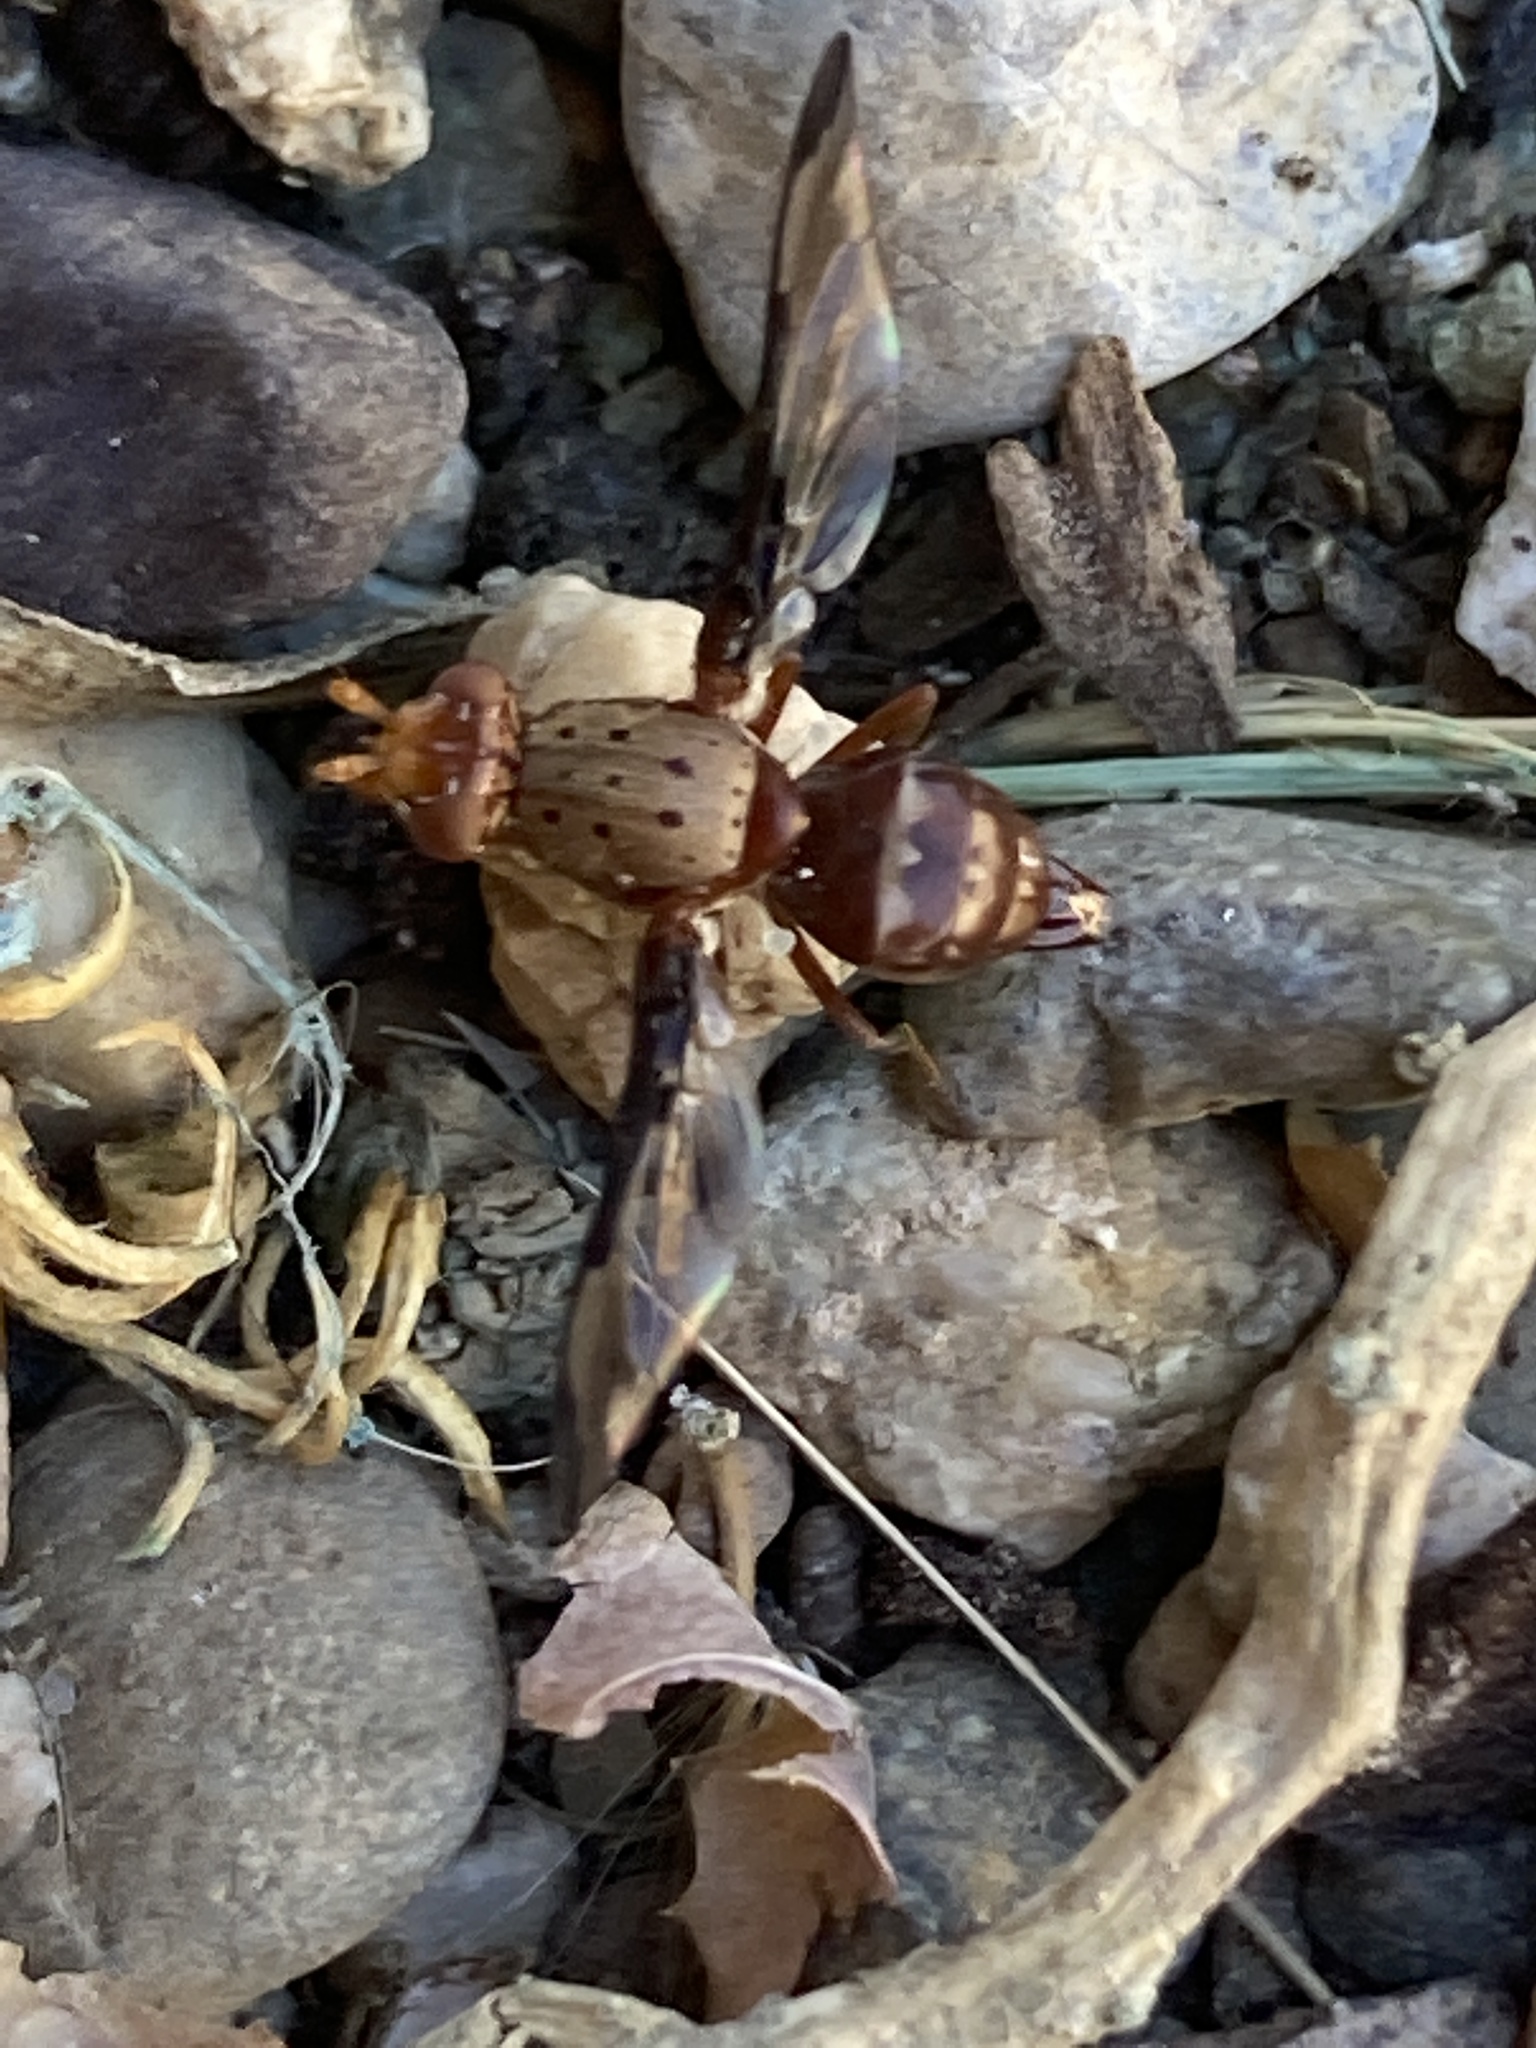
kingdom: Animalia
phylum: Arthropoda
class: Insecta
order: Diptera
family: Ulidiidae
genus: Diacrita
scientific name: Diacrita costalis
